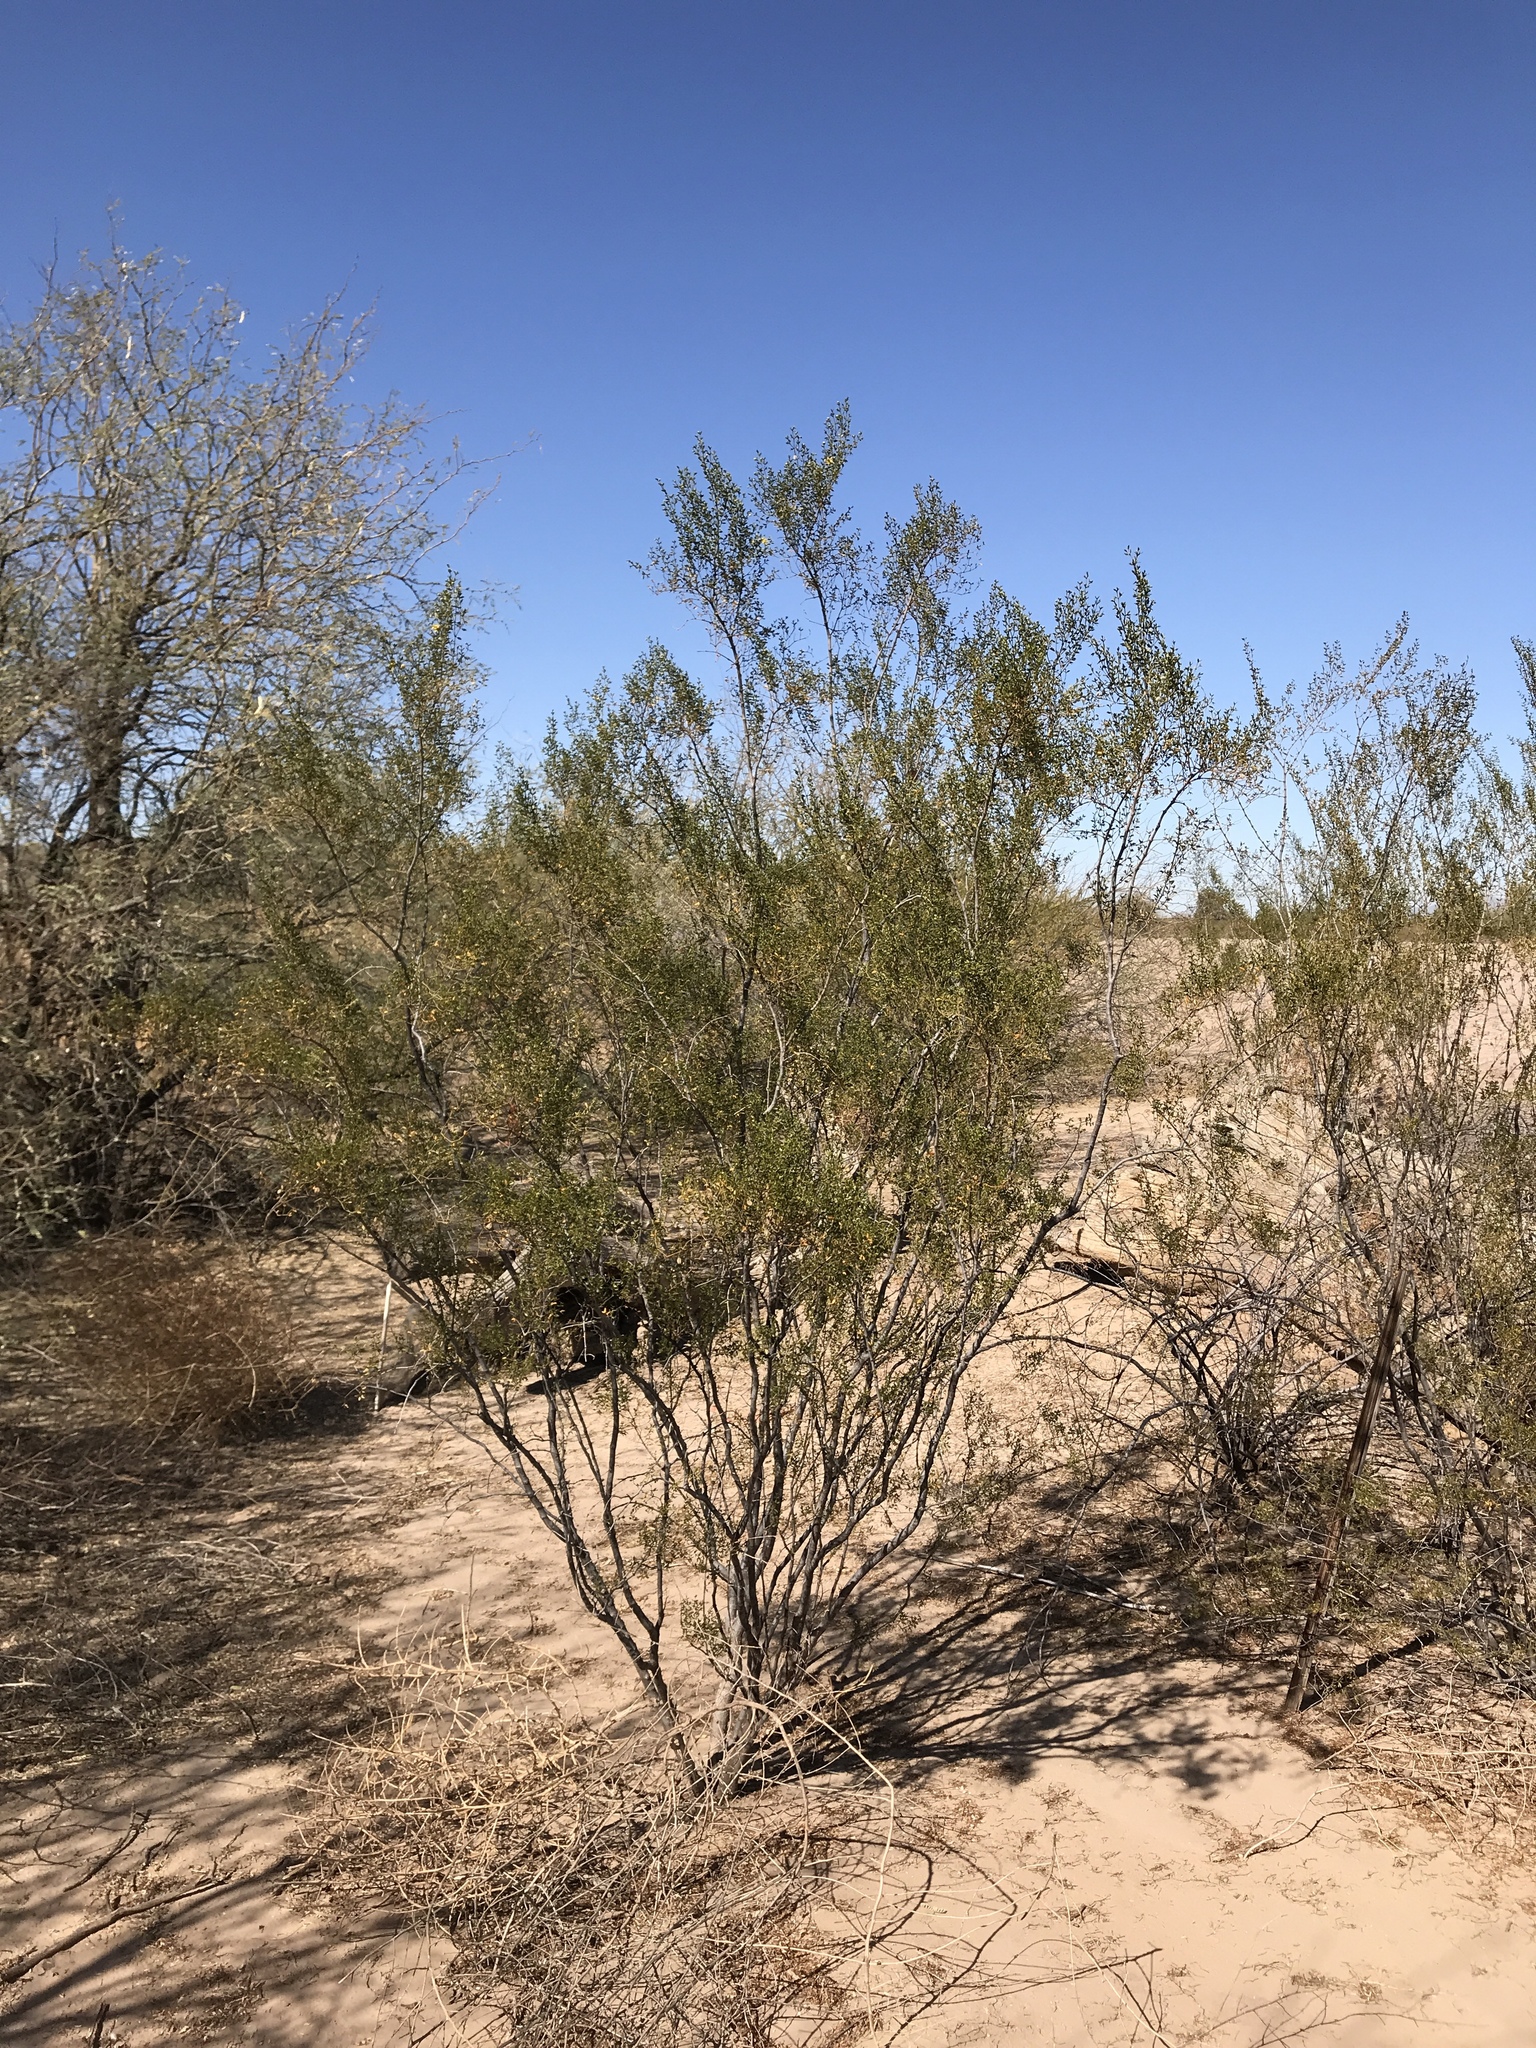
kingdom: Plantae
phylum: Tracheophyta
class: Magnoliopsida
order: Zygophyllales
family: Zygophyllaceae
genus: Larrea
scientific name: Larrea tridentata
